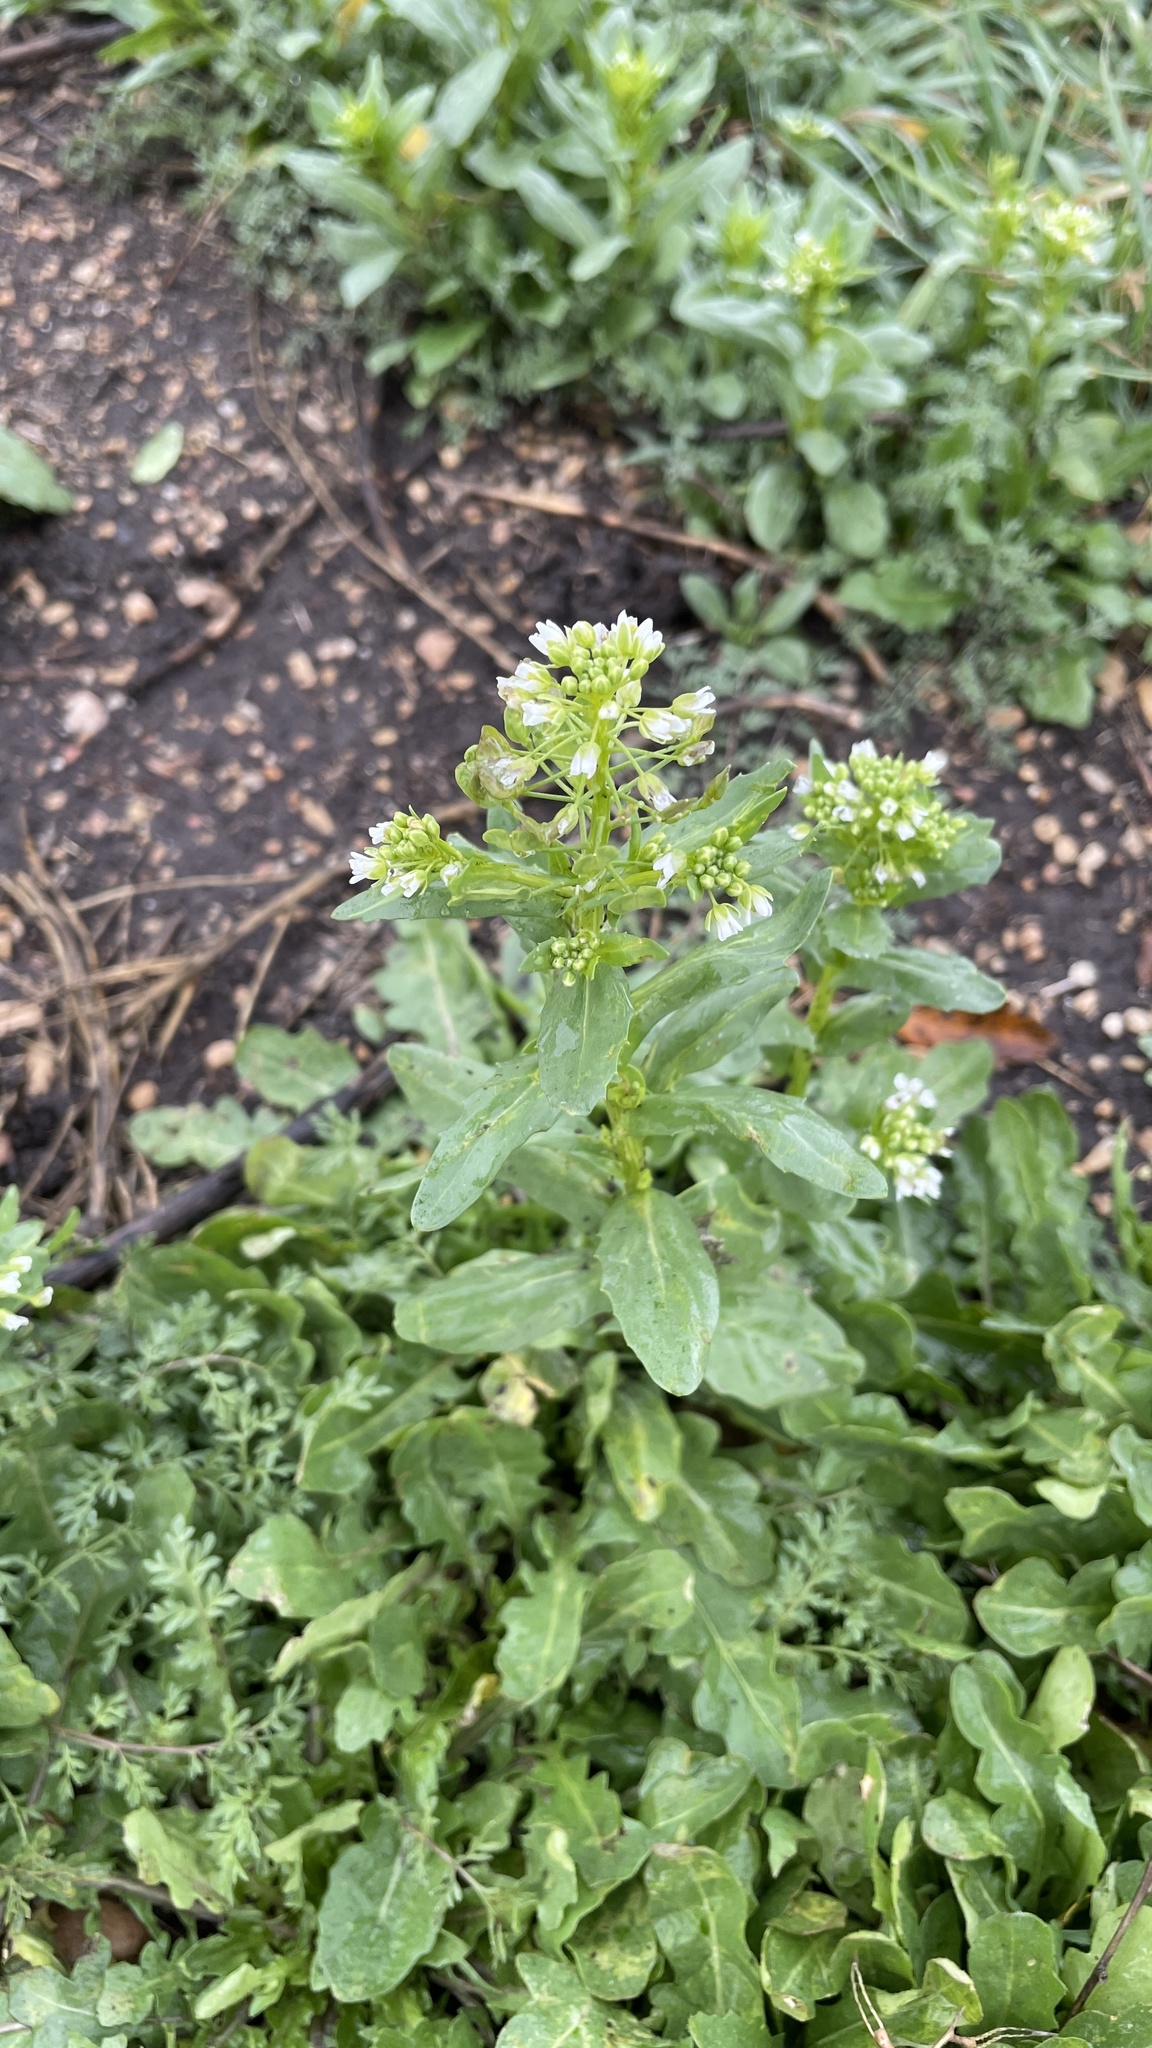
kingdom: Plantae
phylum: Tracheophyta
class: Magnoliopsida
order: Brassicales
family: Brassicaceae
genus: Thlaspi
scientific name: Thlaspi arvense
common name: Field pennycress
